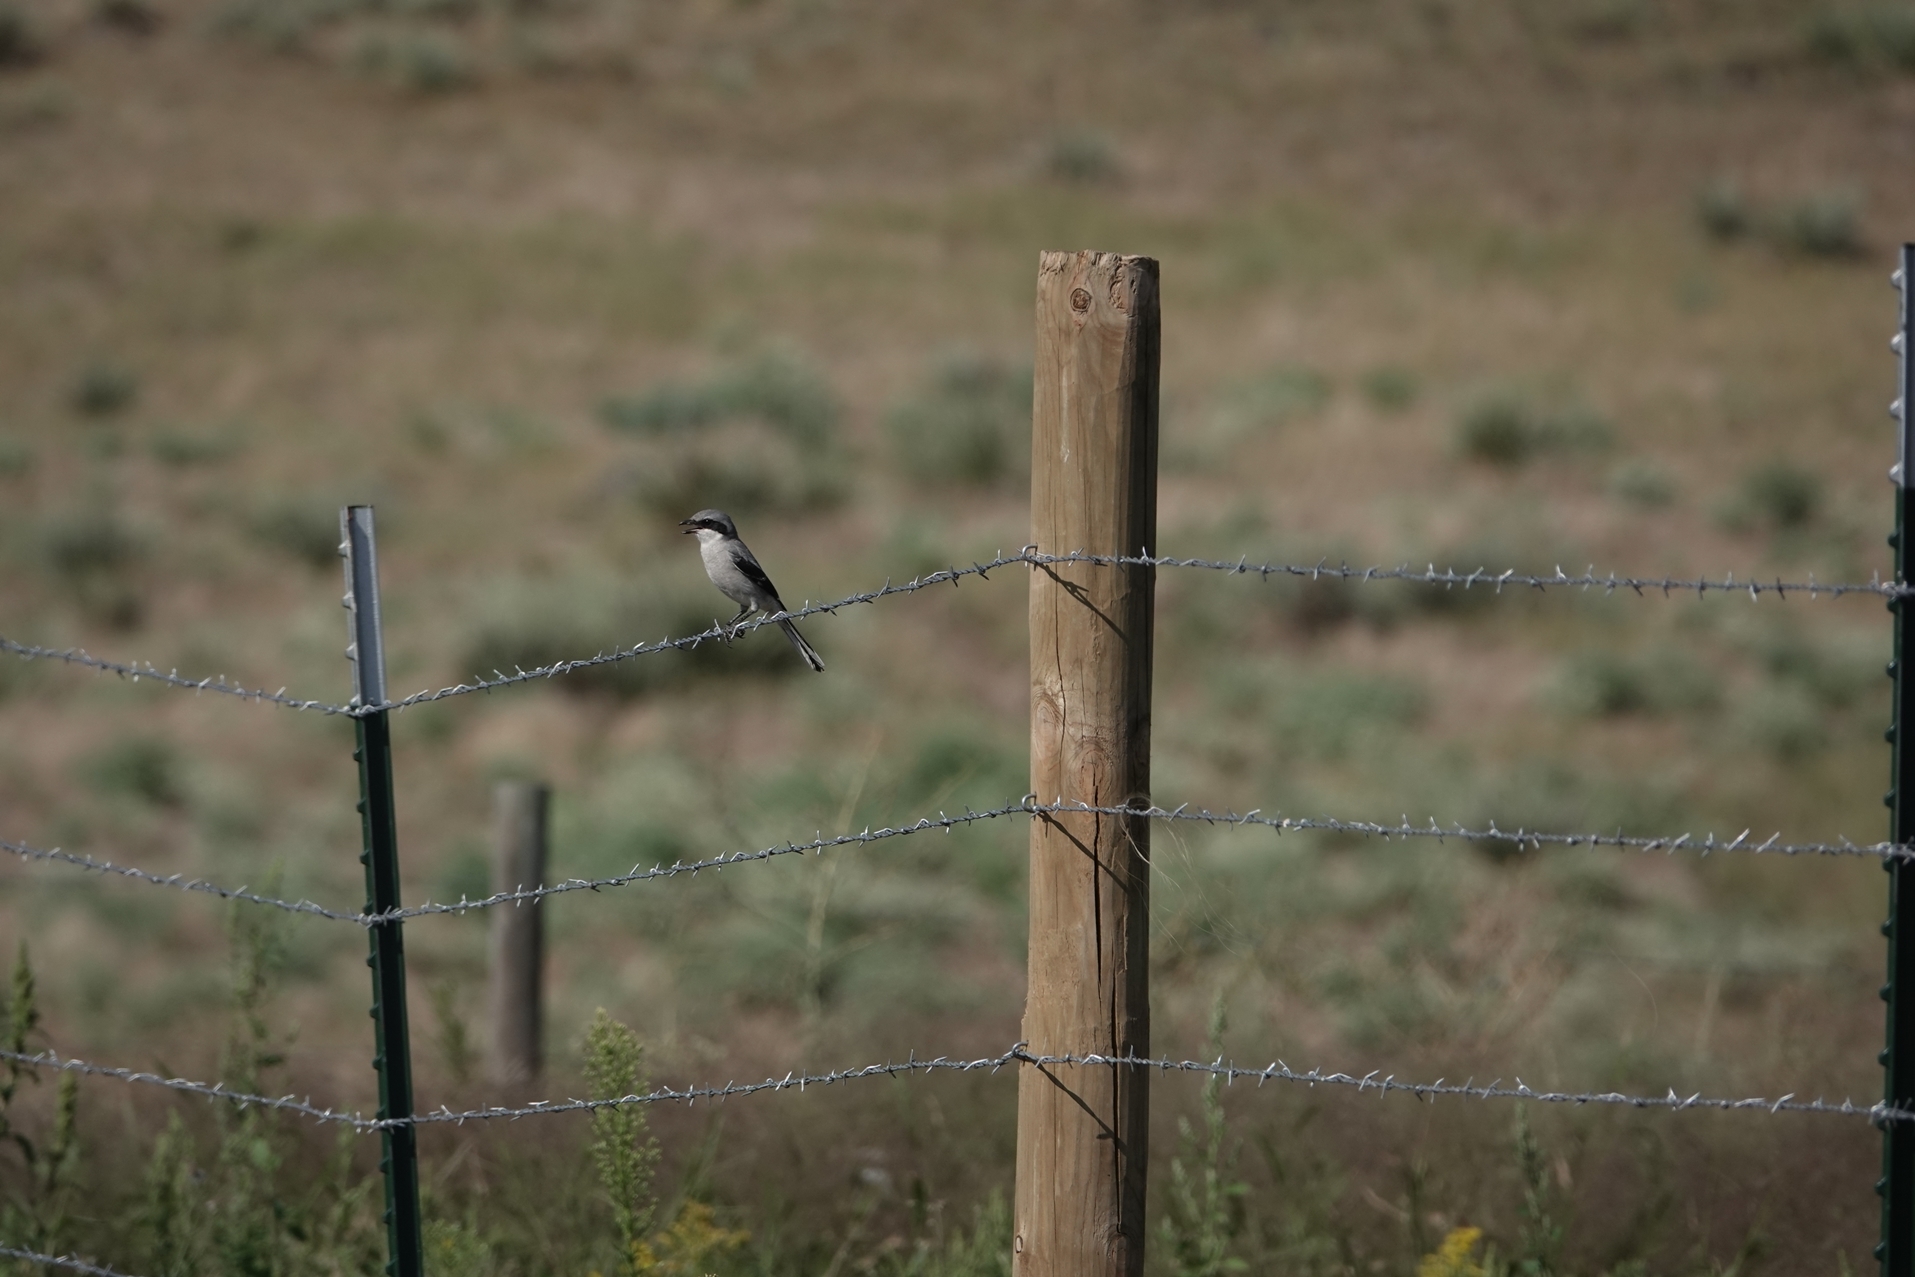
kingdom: Animalia
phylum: Chordata
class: Aves
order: Passeriformes
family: Laniidae
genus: Lanius
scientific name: Lanius ludovicianus
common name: Loggerhead shrike
